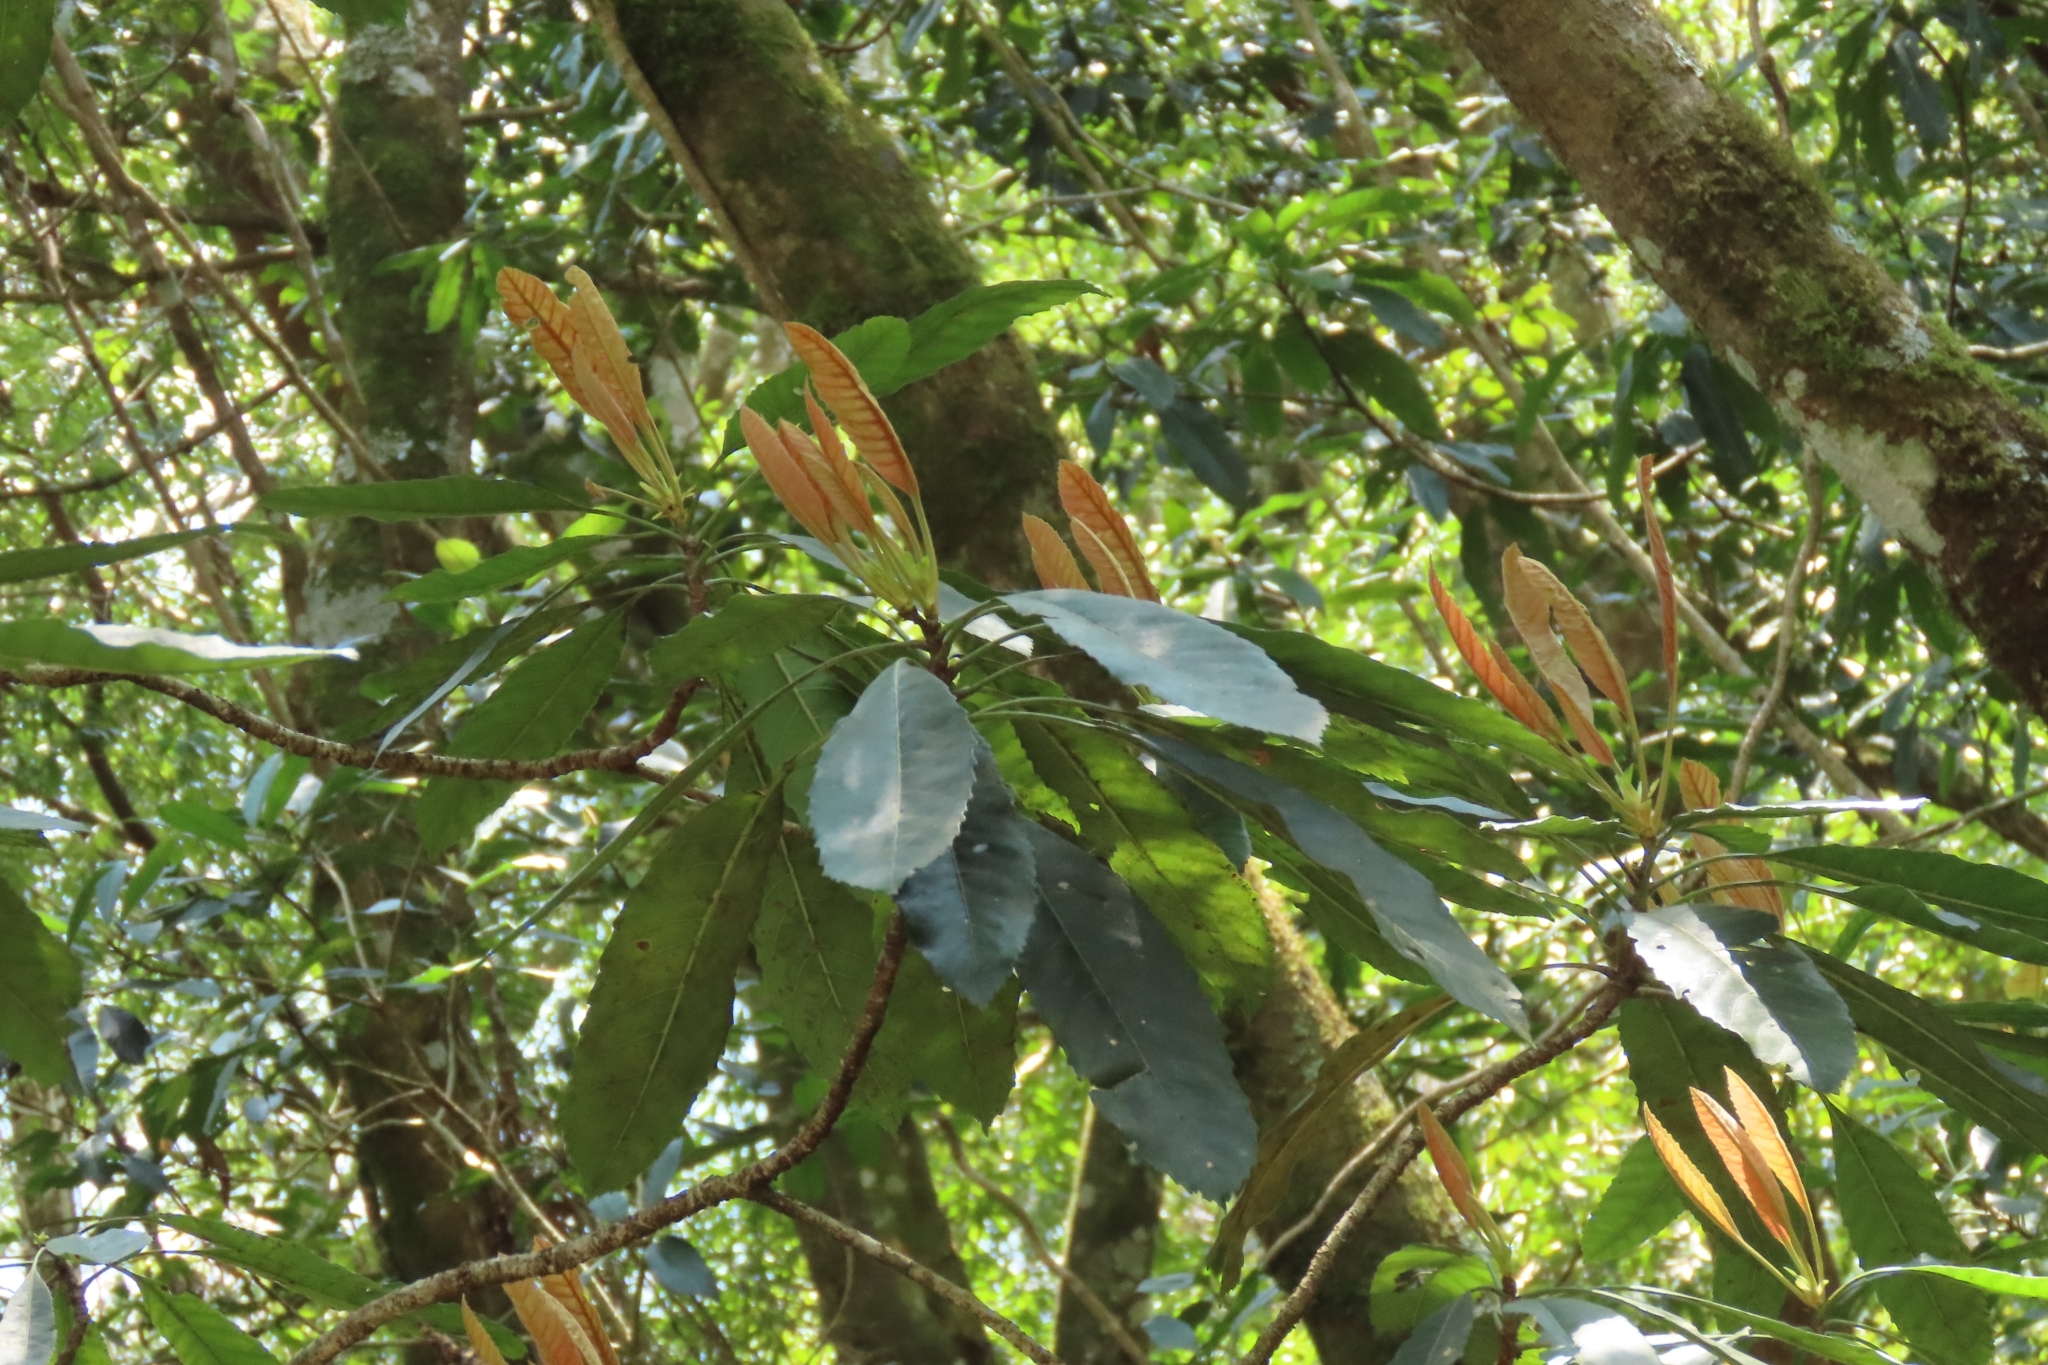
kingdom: Plantae
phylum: Tracheophyta
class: Magnoliopsida
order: Rosales
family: Rosaceae
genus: Rhaphiolepis
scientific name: Rhaphiolepis deflexa
